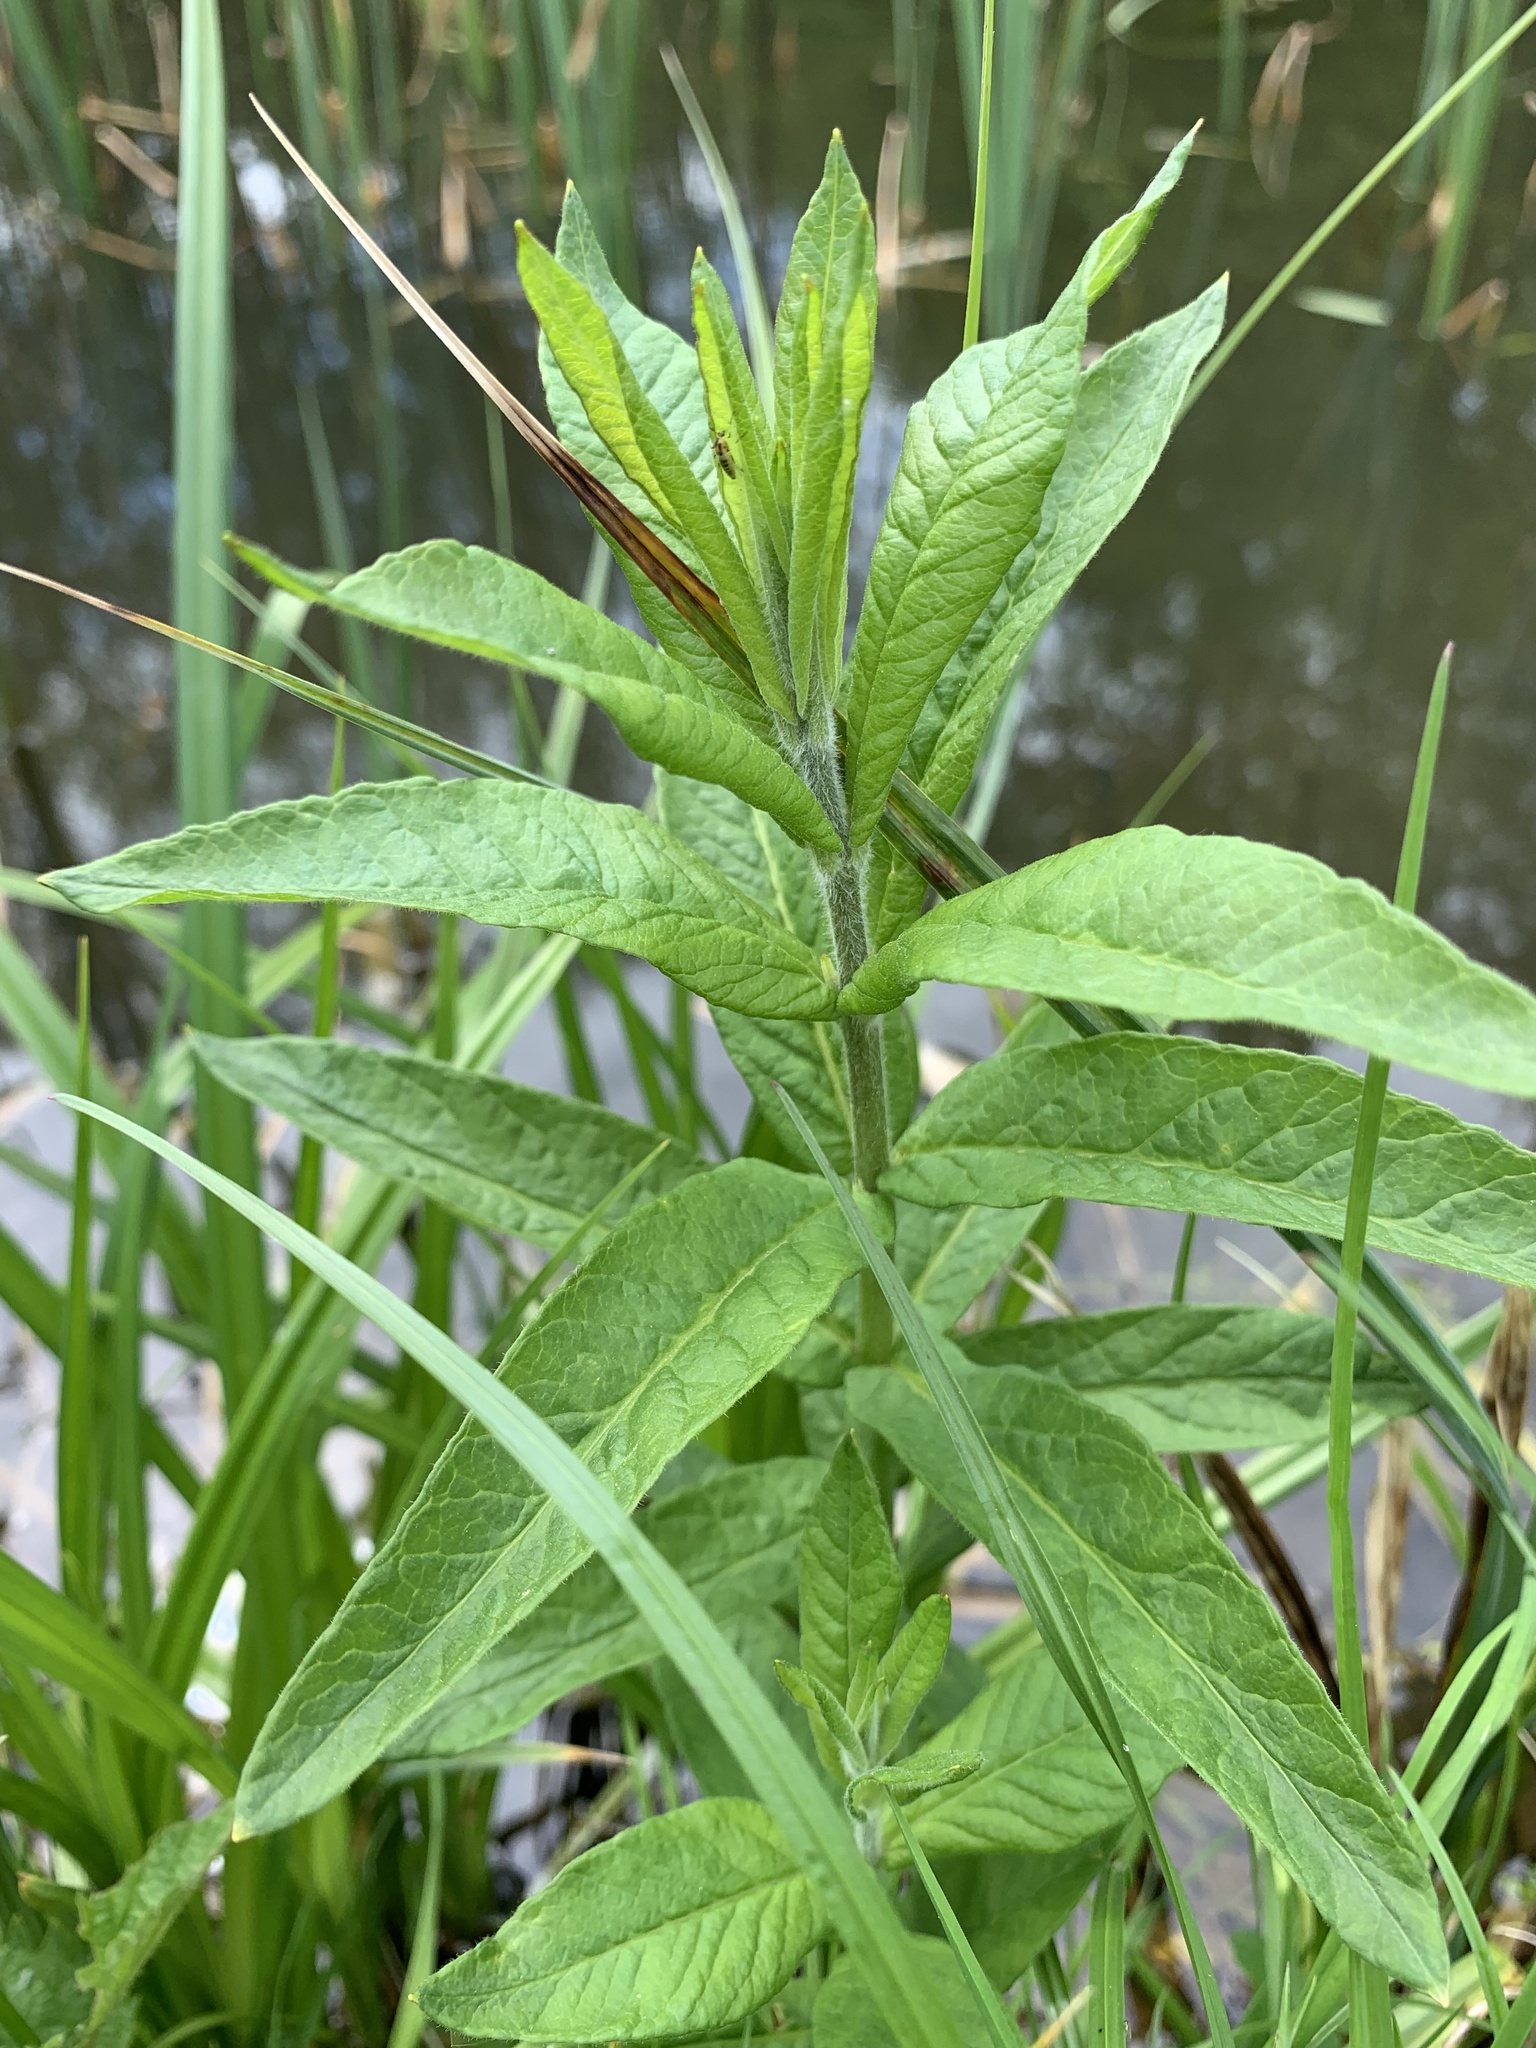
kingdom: Plantae
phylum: Tracheophyta
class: Magnoliopsida
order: Ericales
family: Primulaceae
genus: Lysimachia
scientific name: Lysimachia vulgaris
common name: Yellow loosestrife
